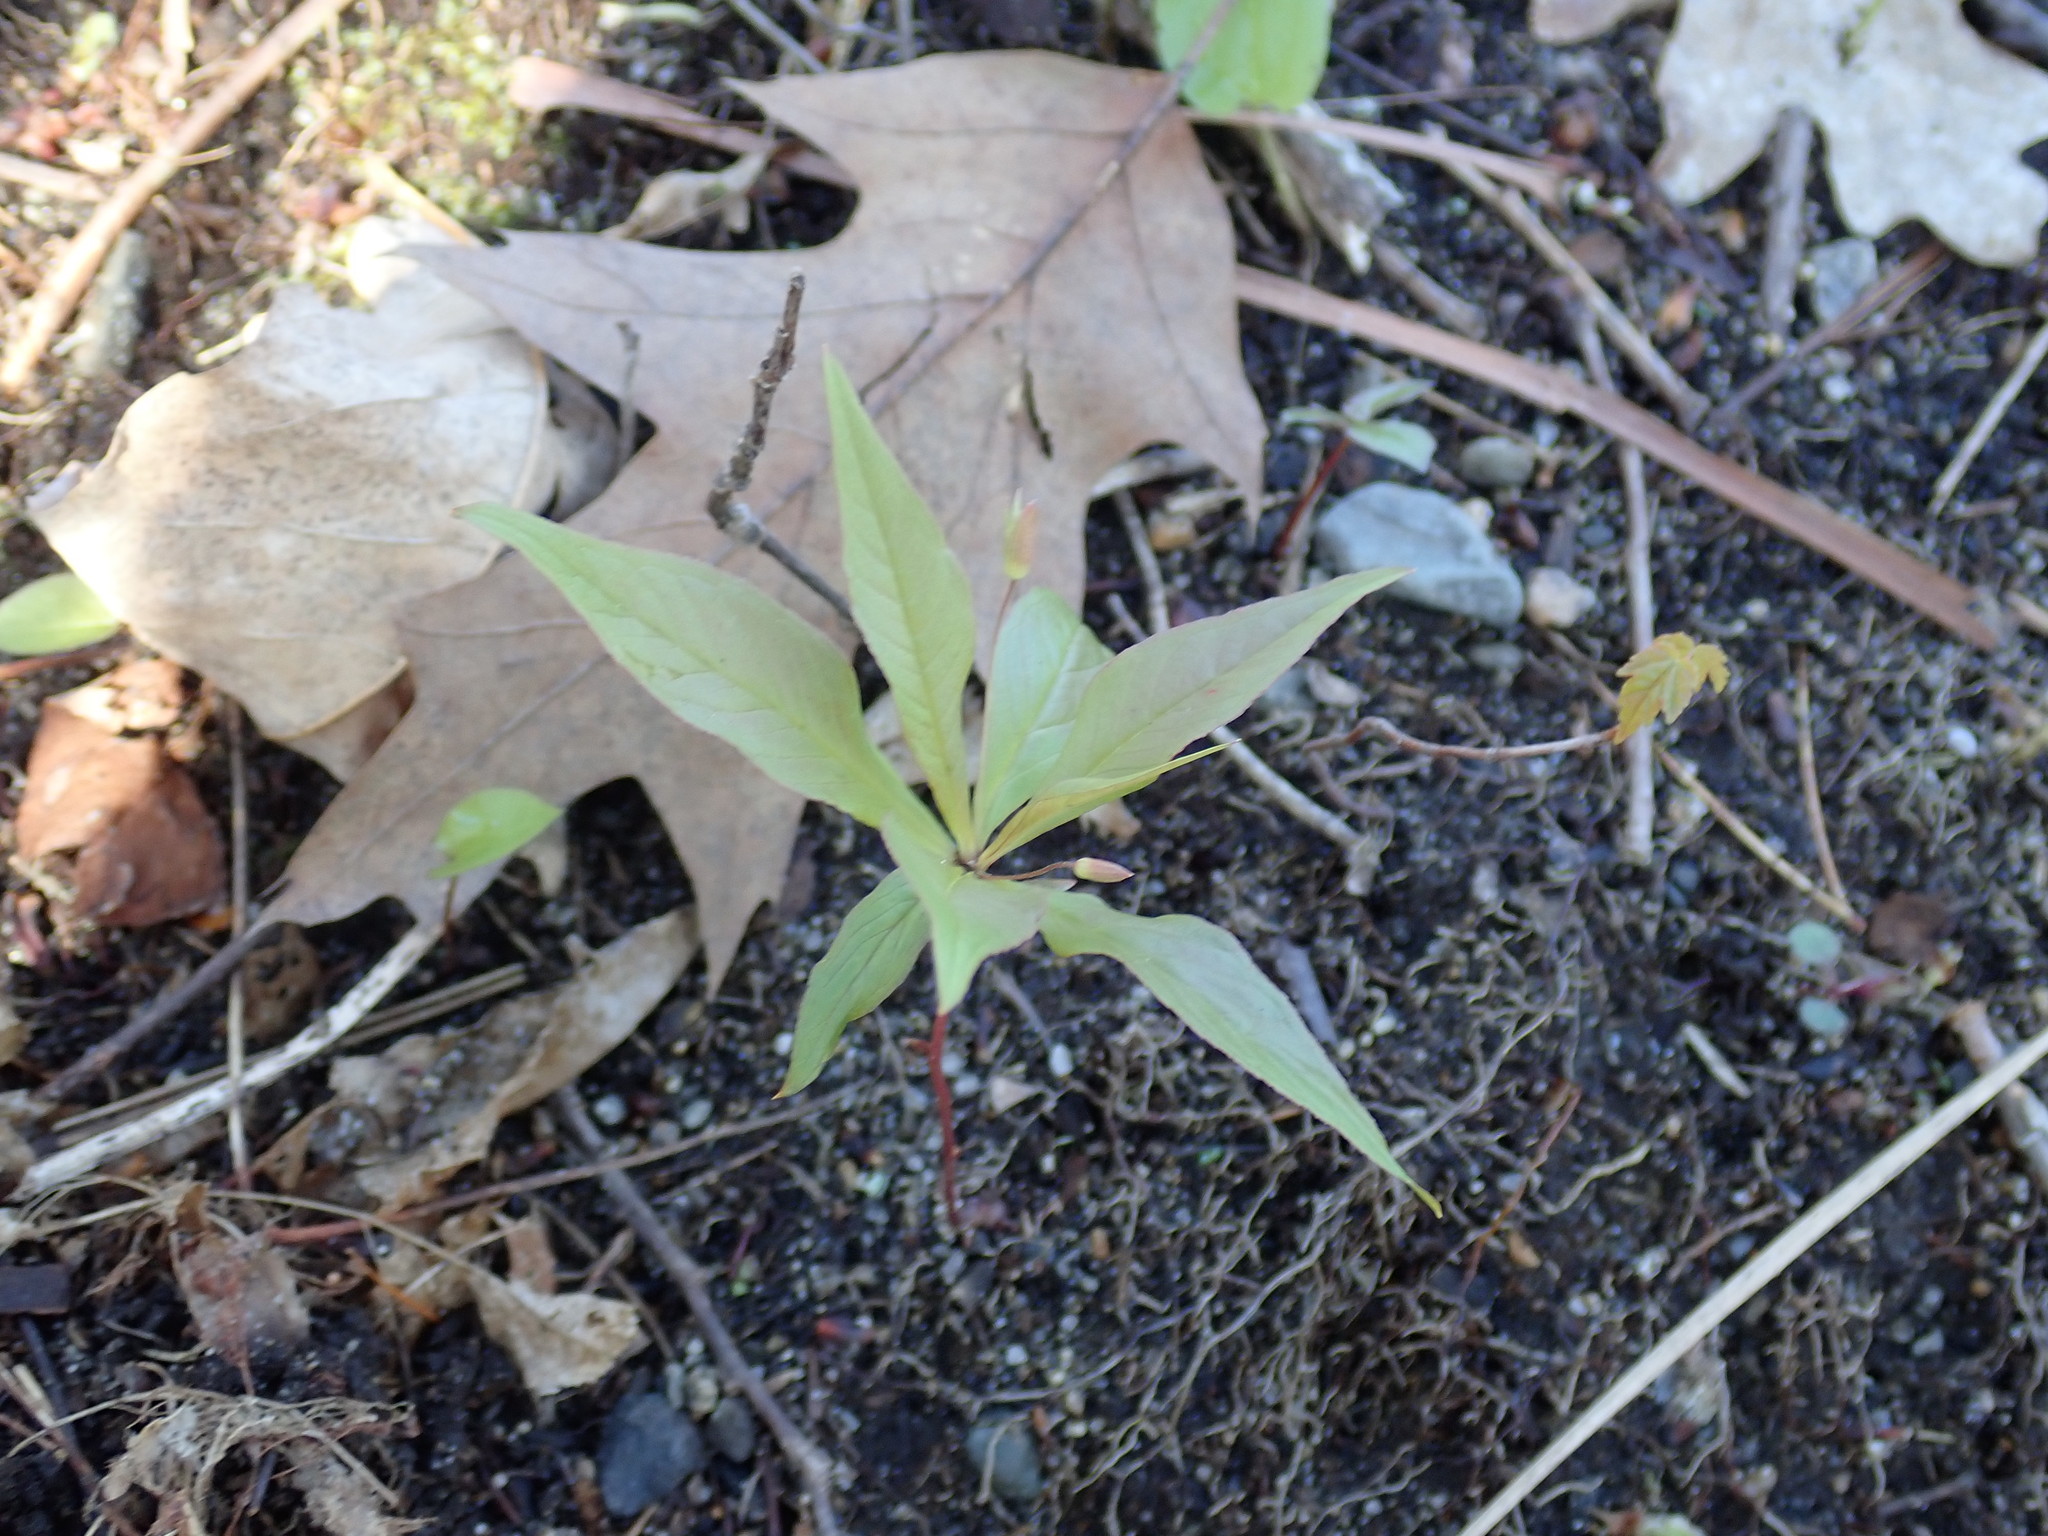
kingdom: Plantae
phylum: Tracheophyta
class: Magnoliopsida
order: Ericales
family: Primulaceae
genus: Lysimachia
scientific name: Lysimachia borealis
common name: American starflower
